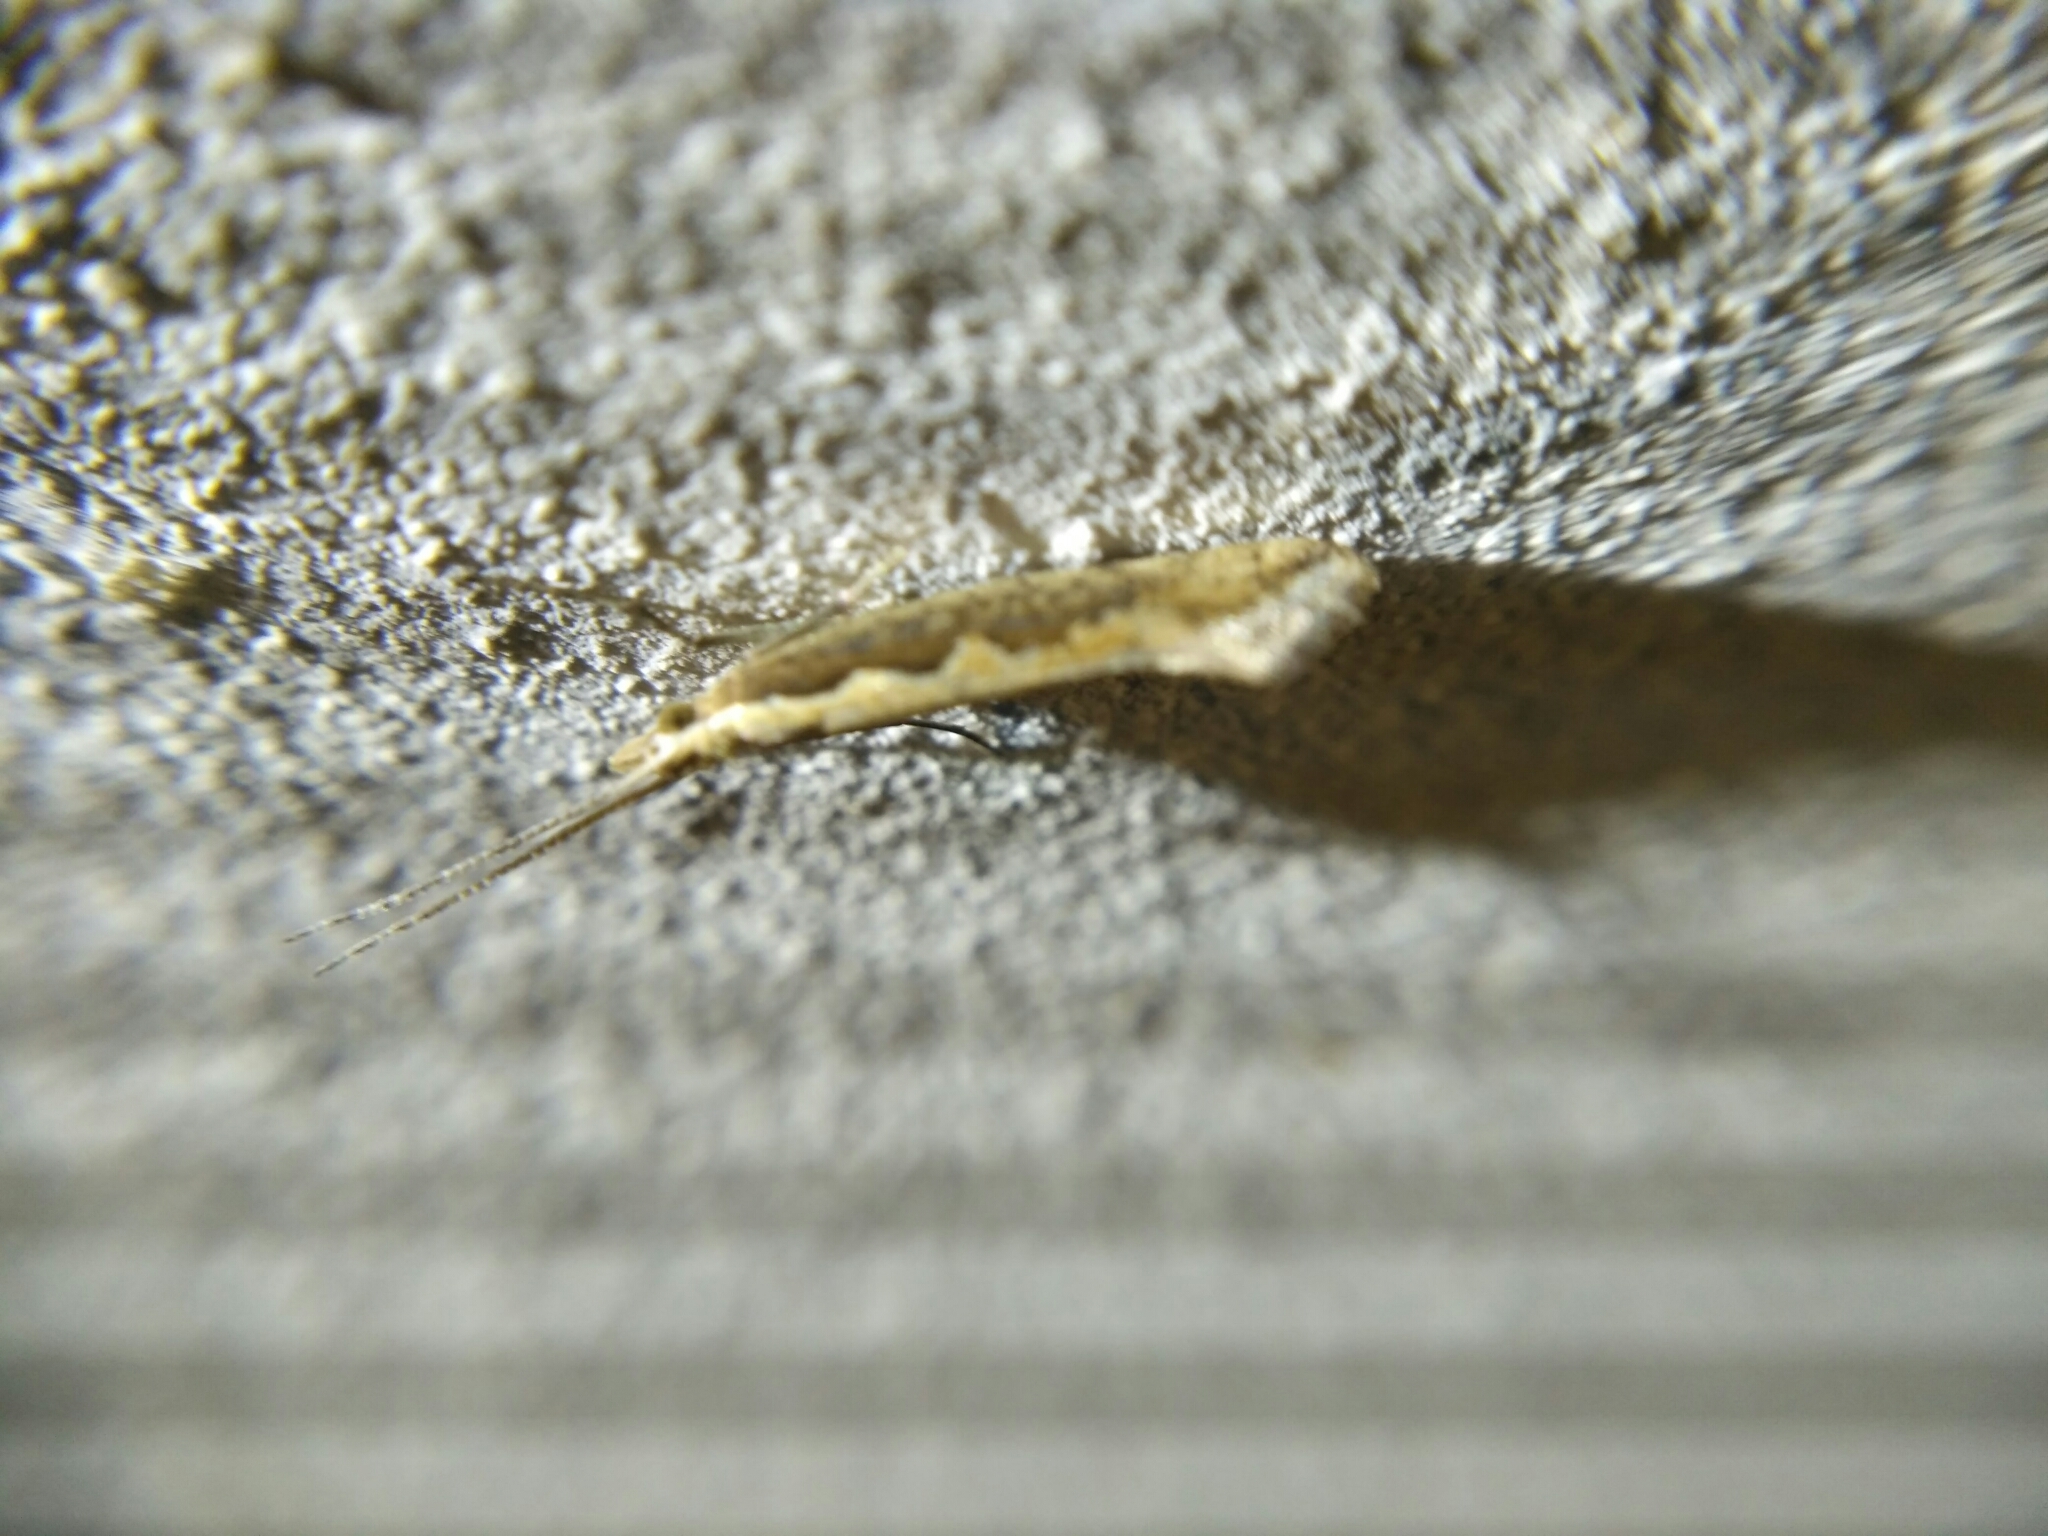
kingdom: Animalia
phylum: Arthropoda
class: Insecta
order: Lepidoptera
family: Plutellidae
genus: Plutella
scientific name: Plutella xylostella
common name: Diamond-back moth
